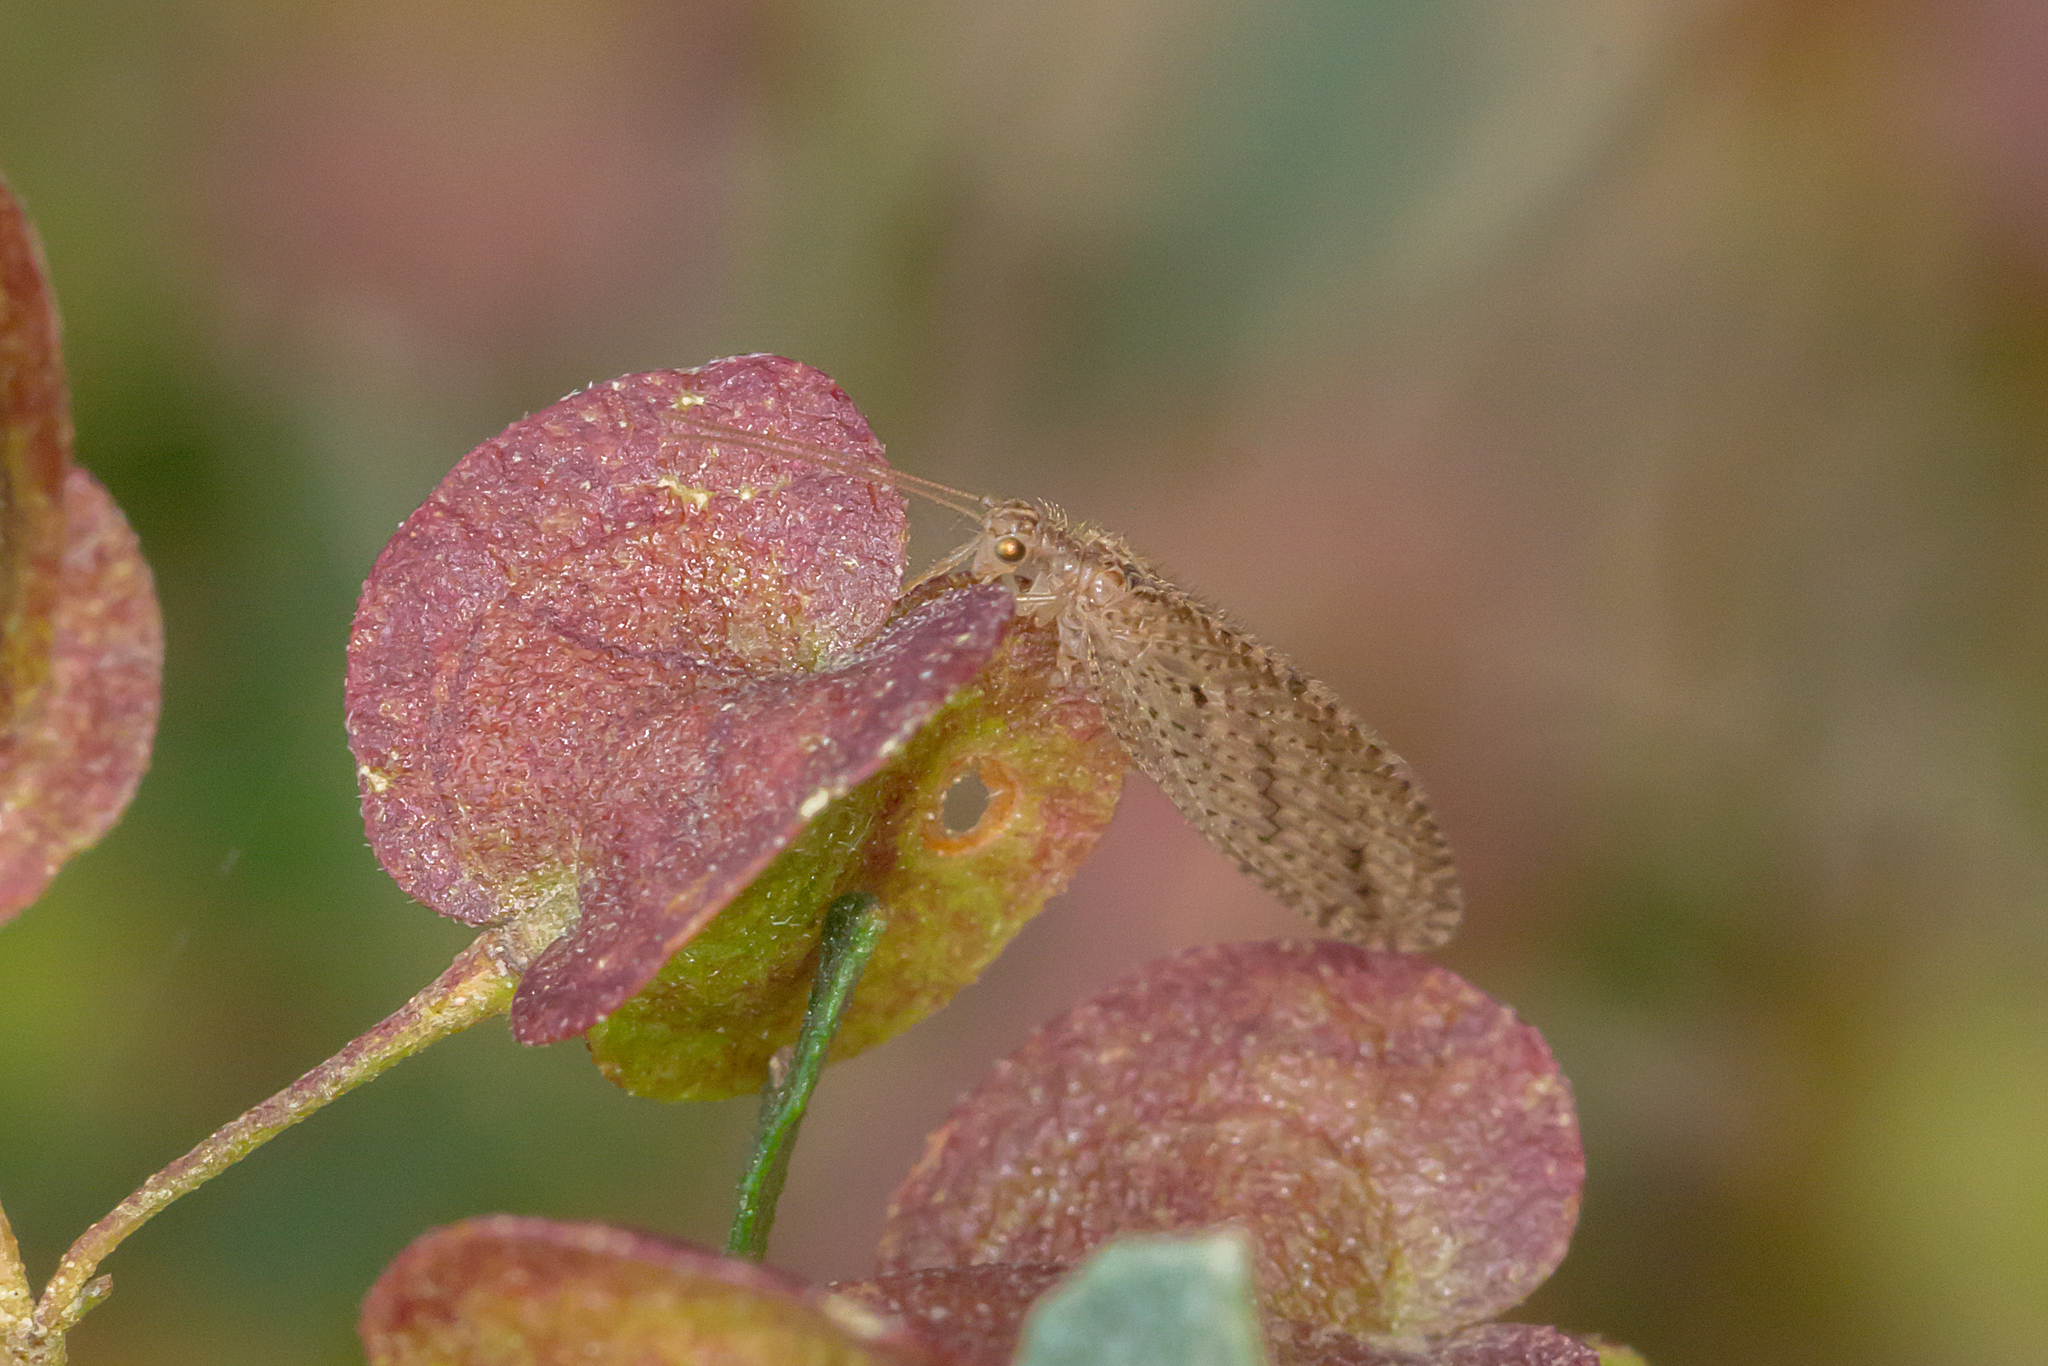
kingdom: Animalia
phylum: Arthropoda
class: Insecta
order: Neuroptera
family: Hemerobiidae
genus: Micromus
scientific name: Micromus tasmaniae
